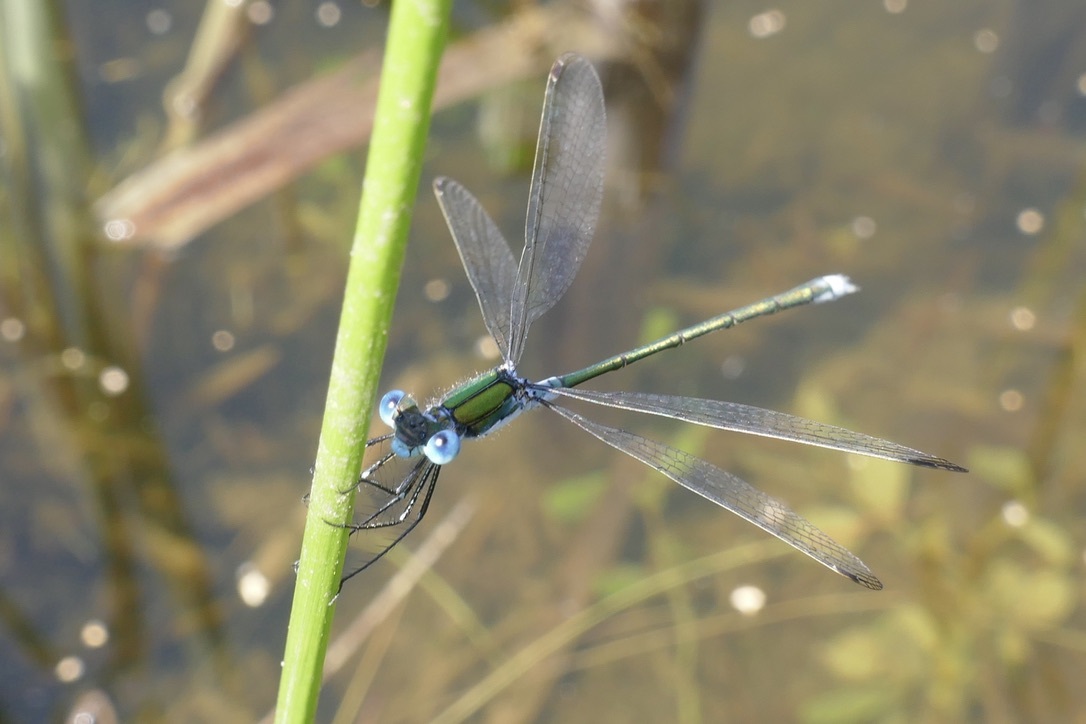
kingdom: Animalia
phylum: Arthropoda
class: Insecta
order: Odonata
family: Lestidae
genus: Lestes
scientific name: Lestes sponsa
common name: Common spreadwing
